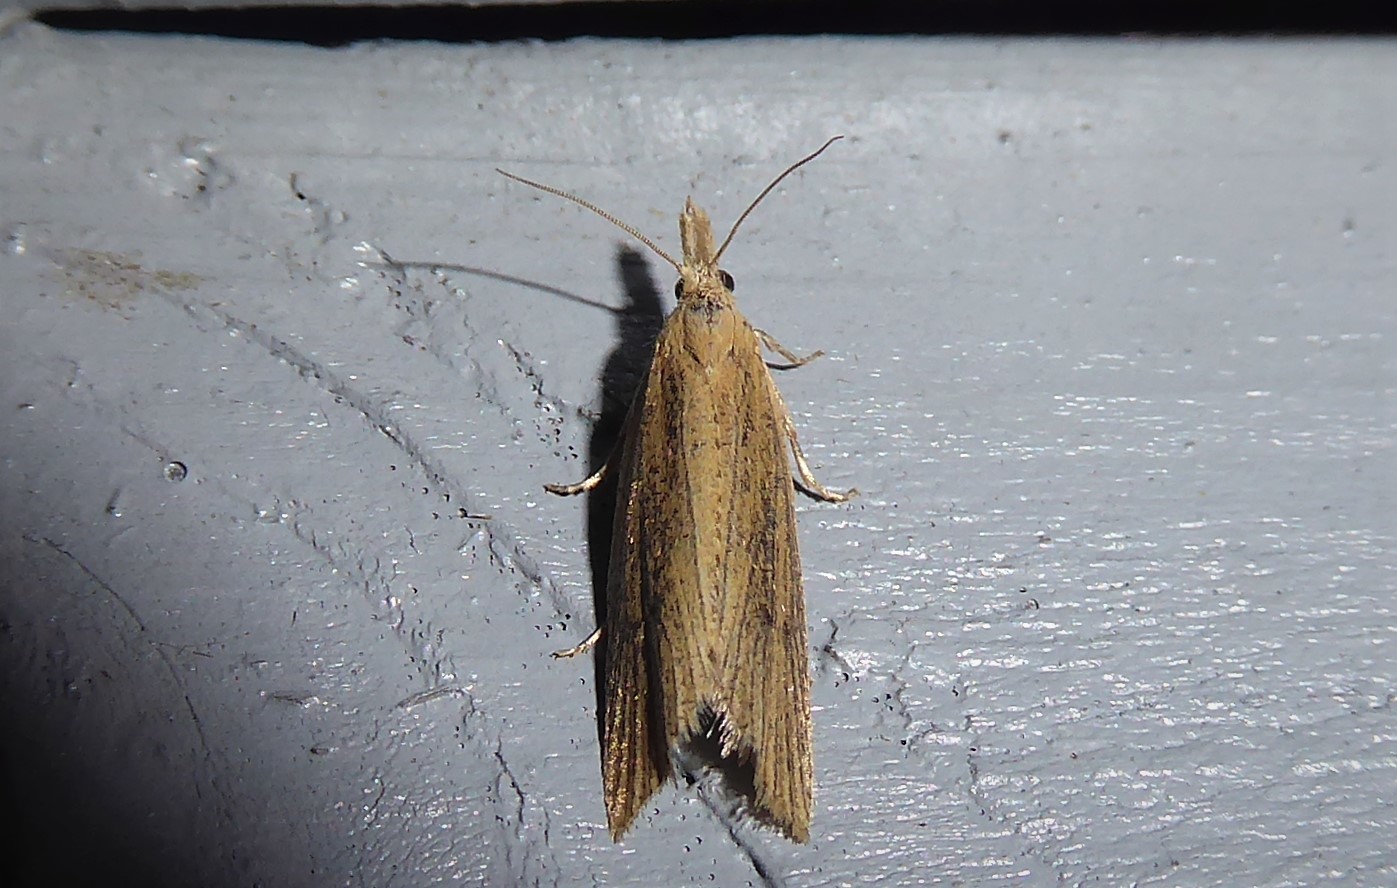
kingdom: Animalia
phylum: Arthropoda
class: Insecta
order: Lepidoptera
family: Tortricidae
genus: Bactra
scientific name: Bactra noteraula
